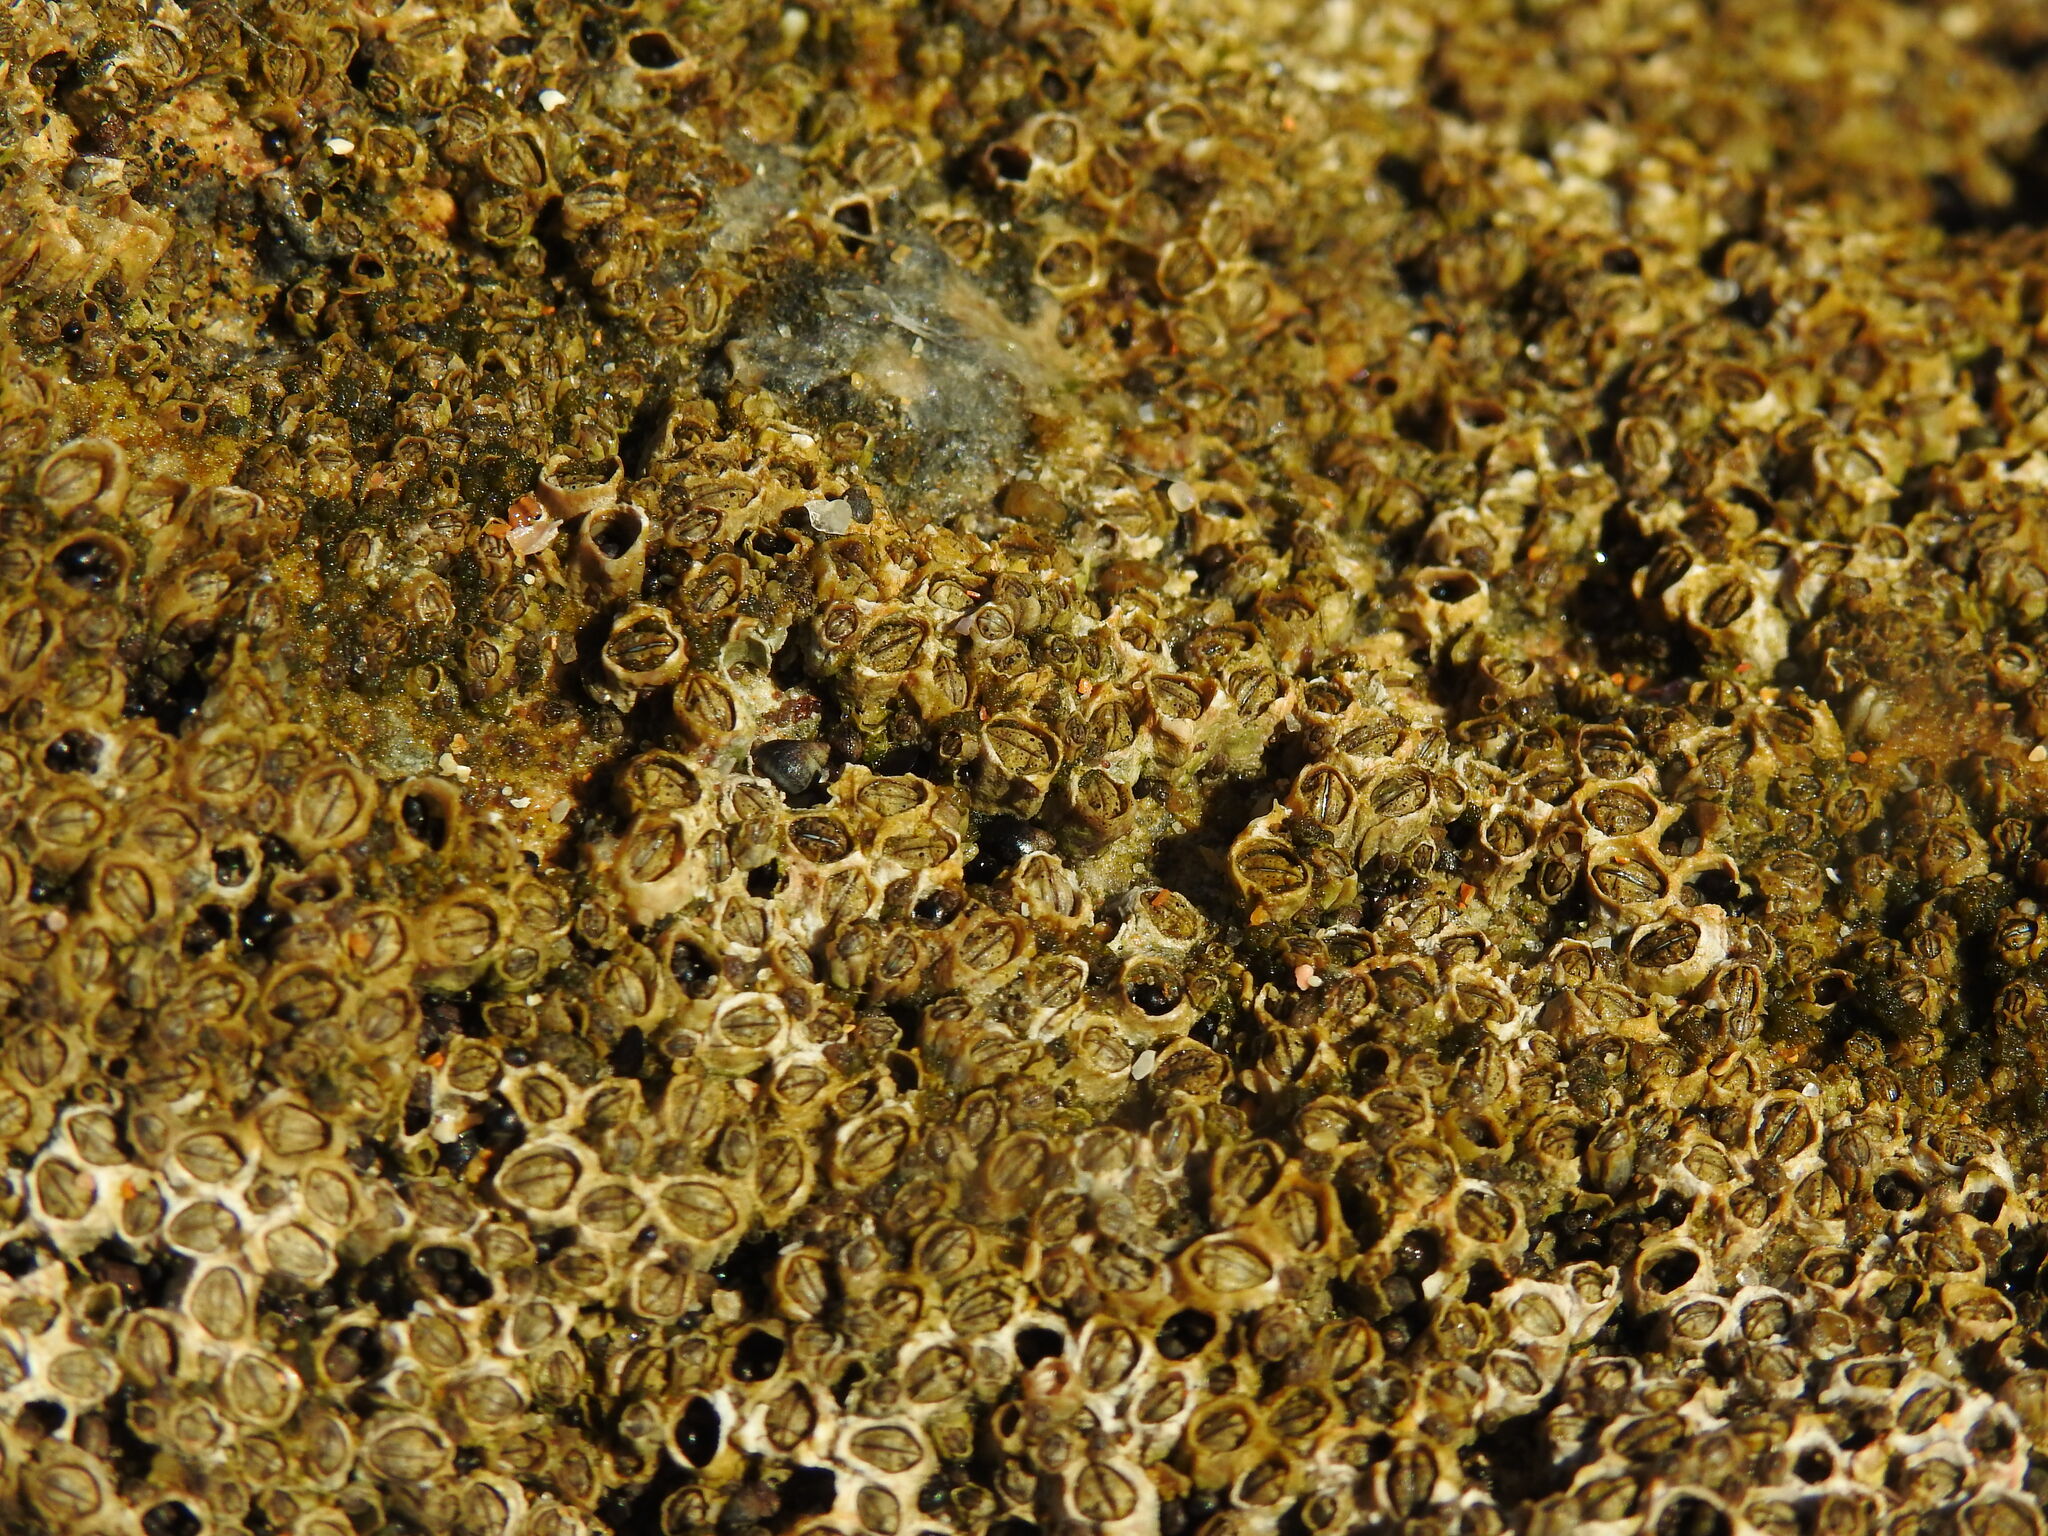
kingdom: Animalia
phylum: Arthropoda
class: Maxillopoda
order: Sessilia
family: Chthamalidae
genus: Chthamalus
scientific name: Chthamalus montagui
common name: Montagu's stellate barnacle
